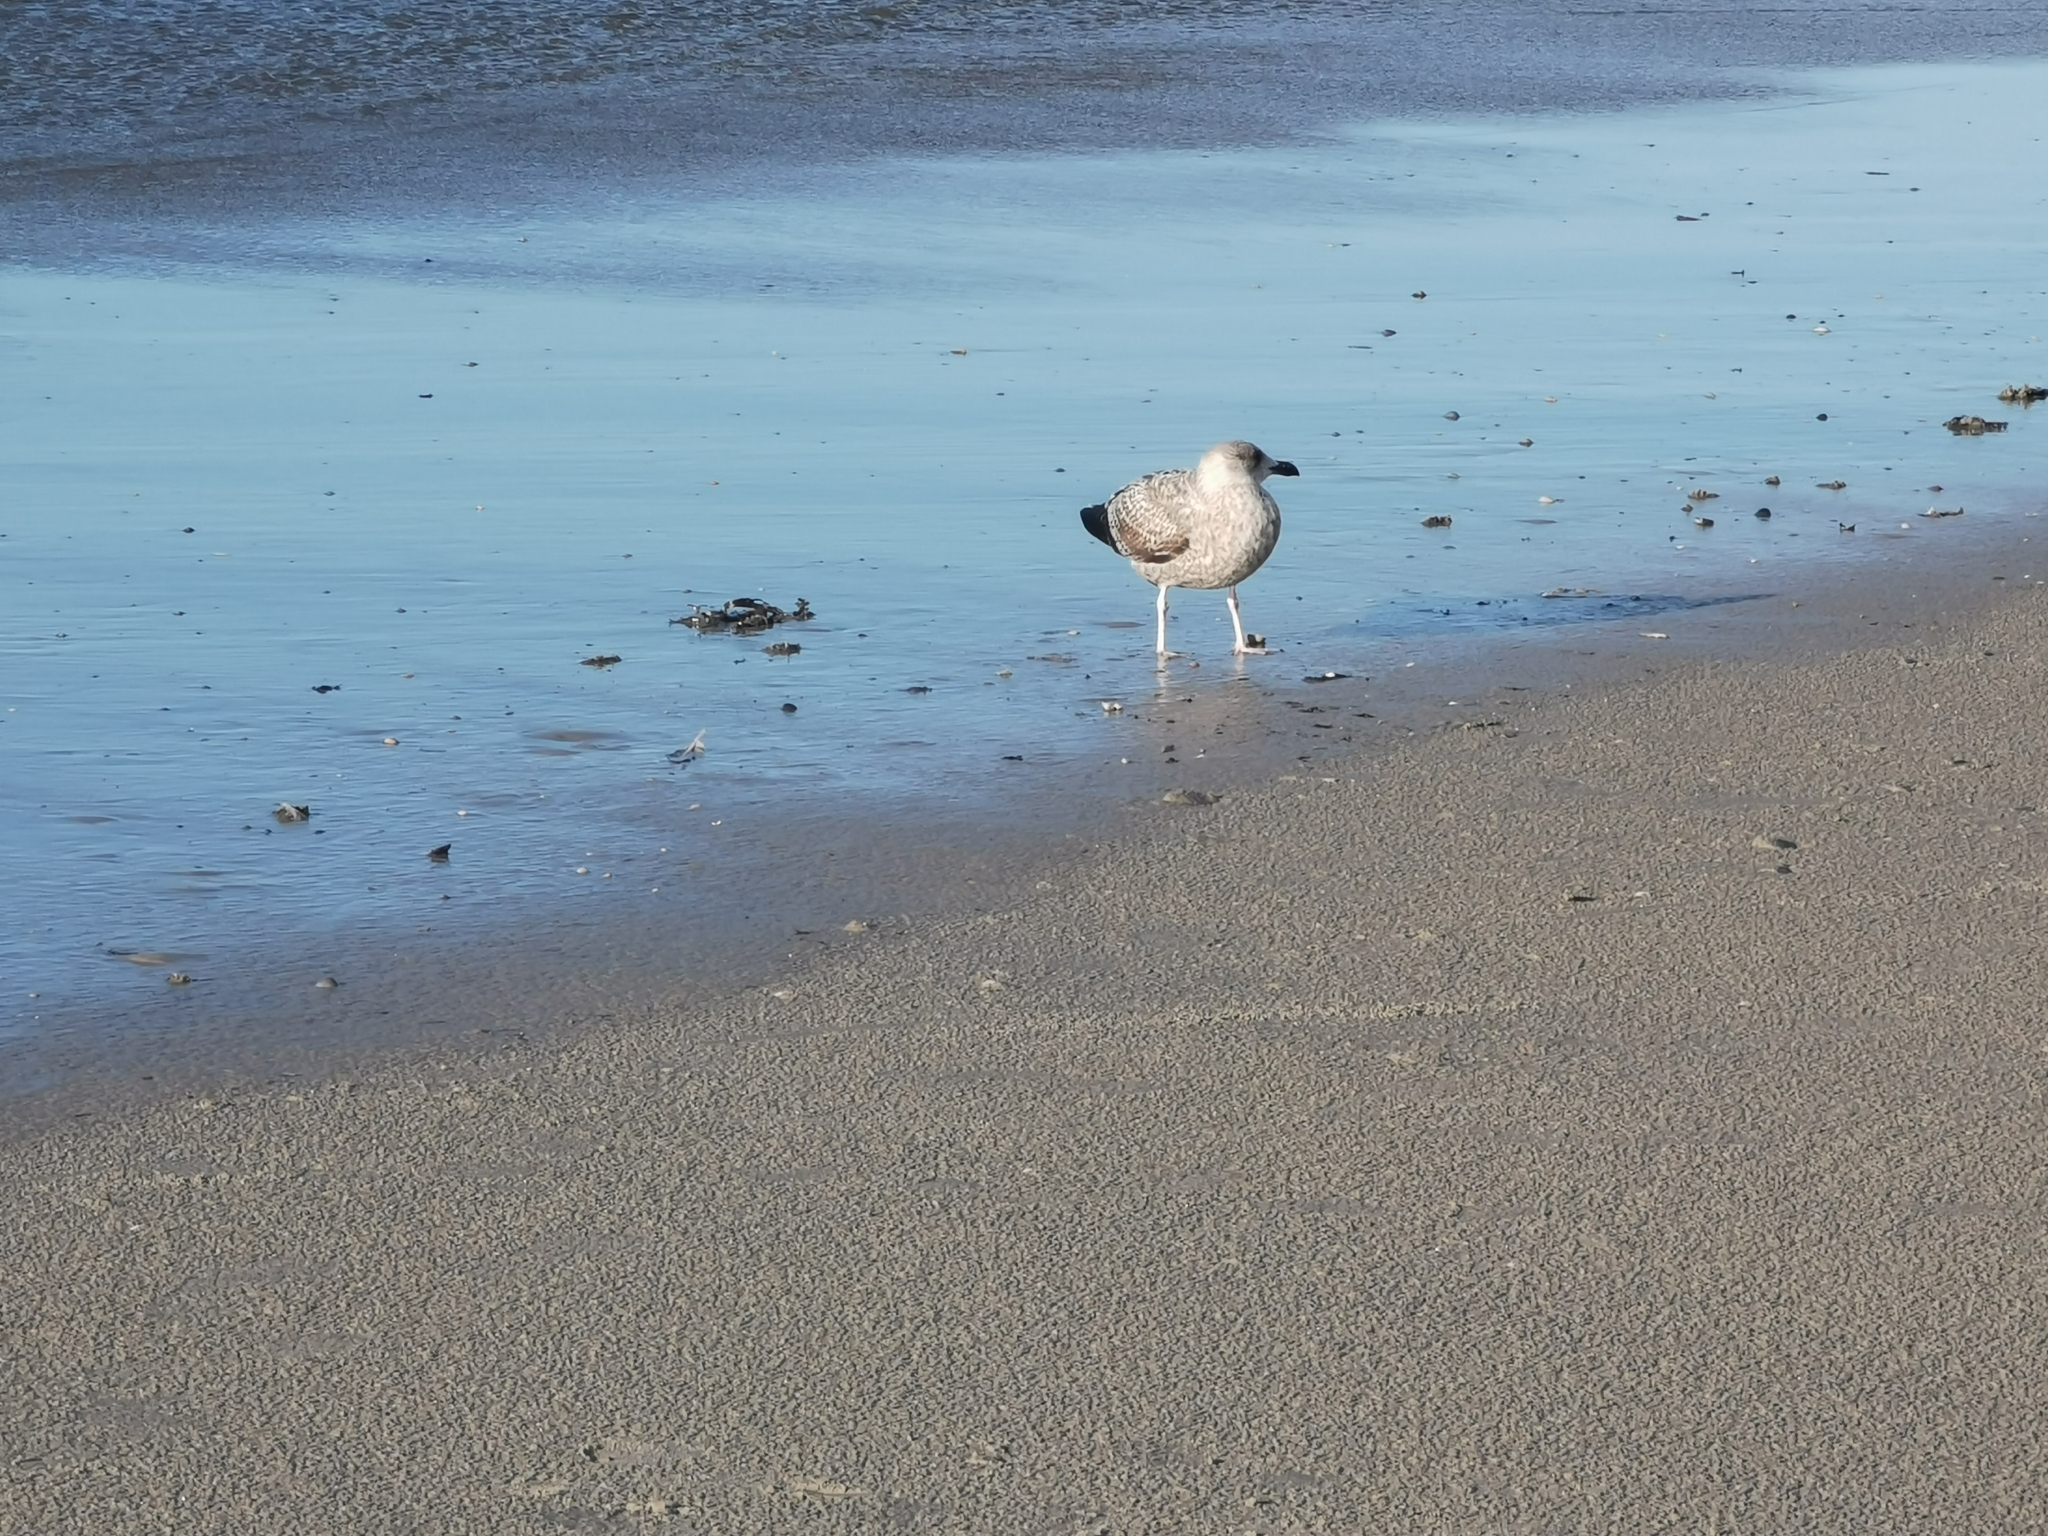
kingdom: Animalia
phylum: Chordata
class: Aves
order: Charadriiformes
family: Laridae
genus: Larus
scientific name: Larus argentatus
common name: Herring gull
